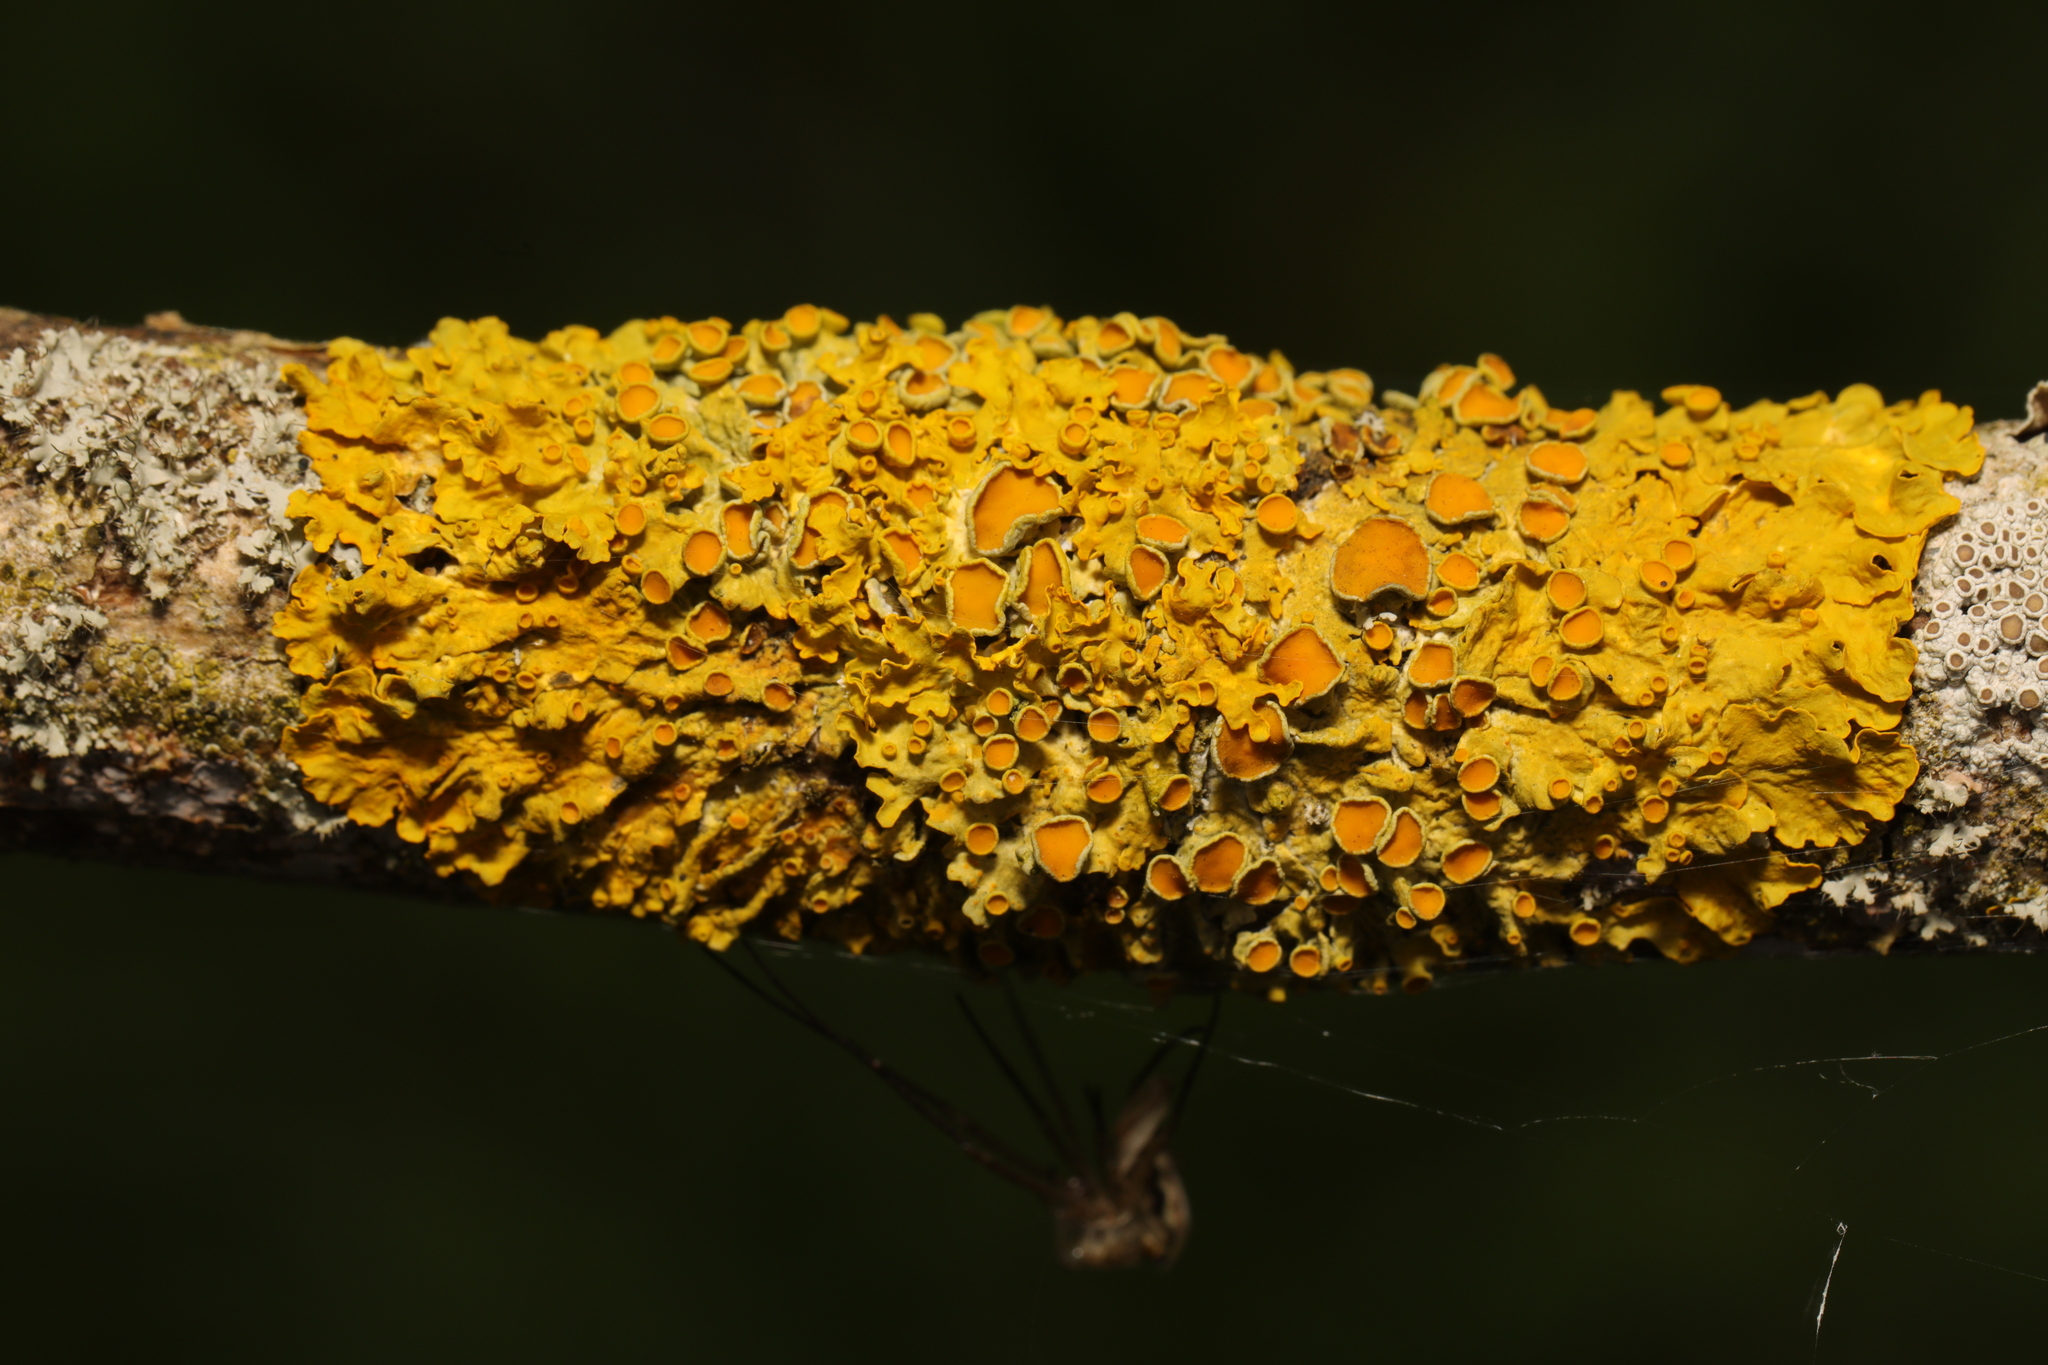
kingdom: Fungi
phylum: Ascomycota
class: Lecanoromycetes
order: Teloschistales
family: Teloschistaceae
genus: Xanthoria
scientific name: Xanthoria parietina
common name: Common orange lichen
